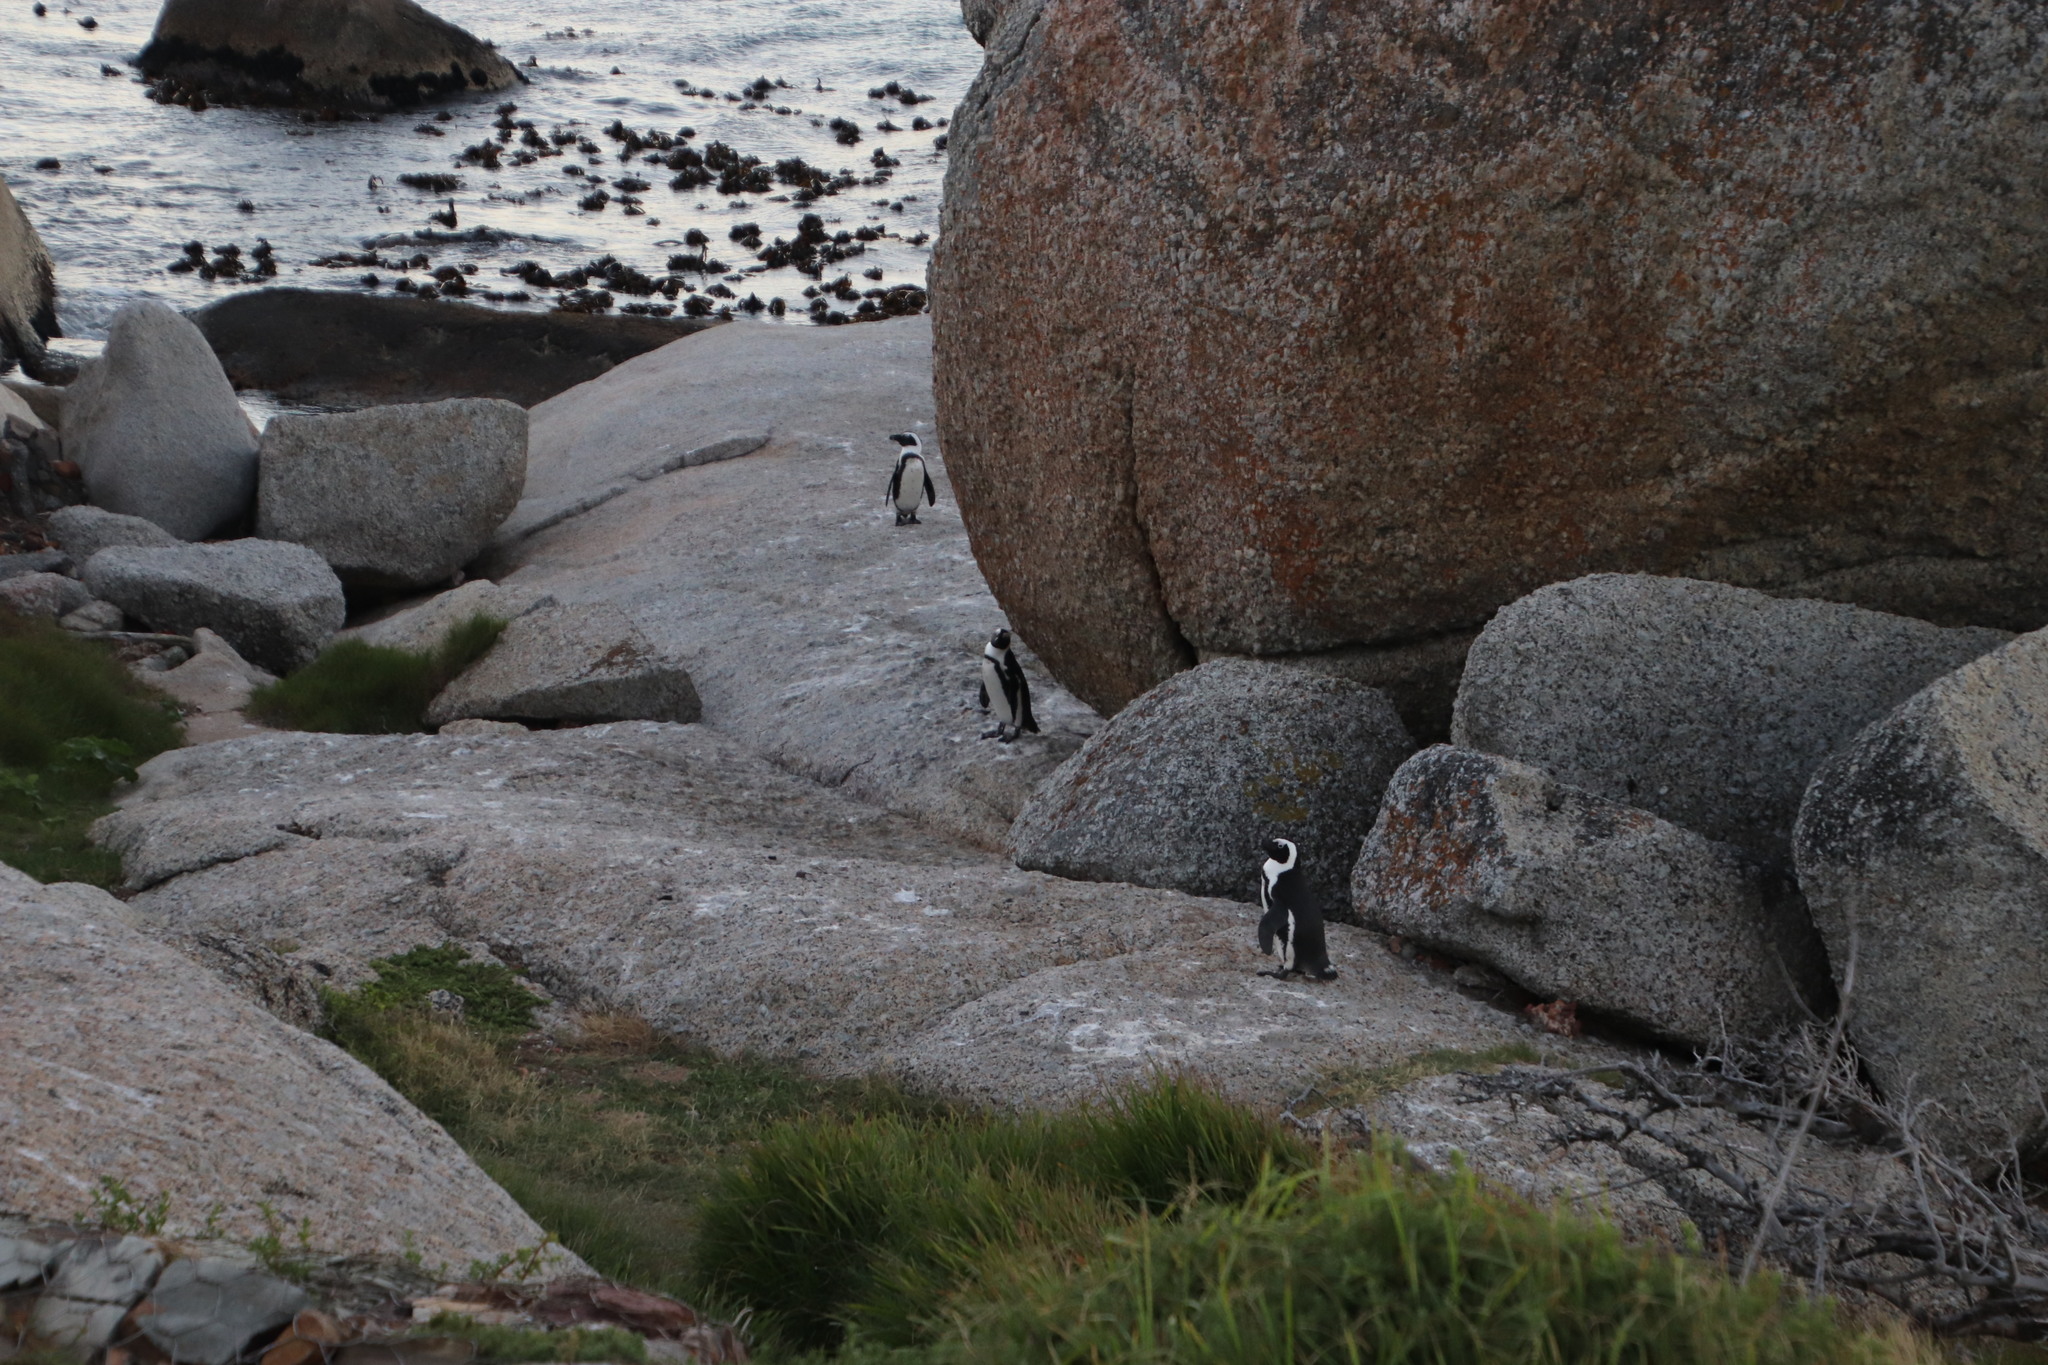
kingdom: Animalia
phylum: Chordata
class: Aves
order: Sphenisciformes
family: Spheniscidae
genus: Spheniscus
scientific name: Spheniscus demersus
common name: African penguin
